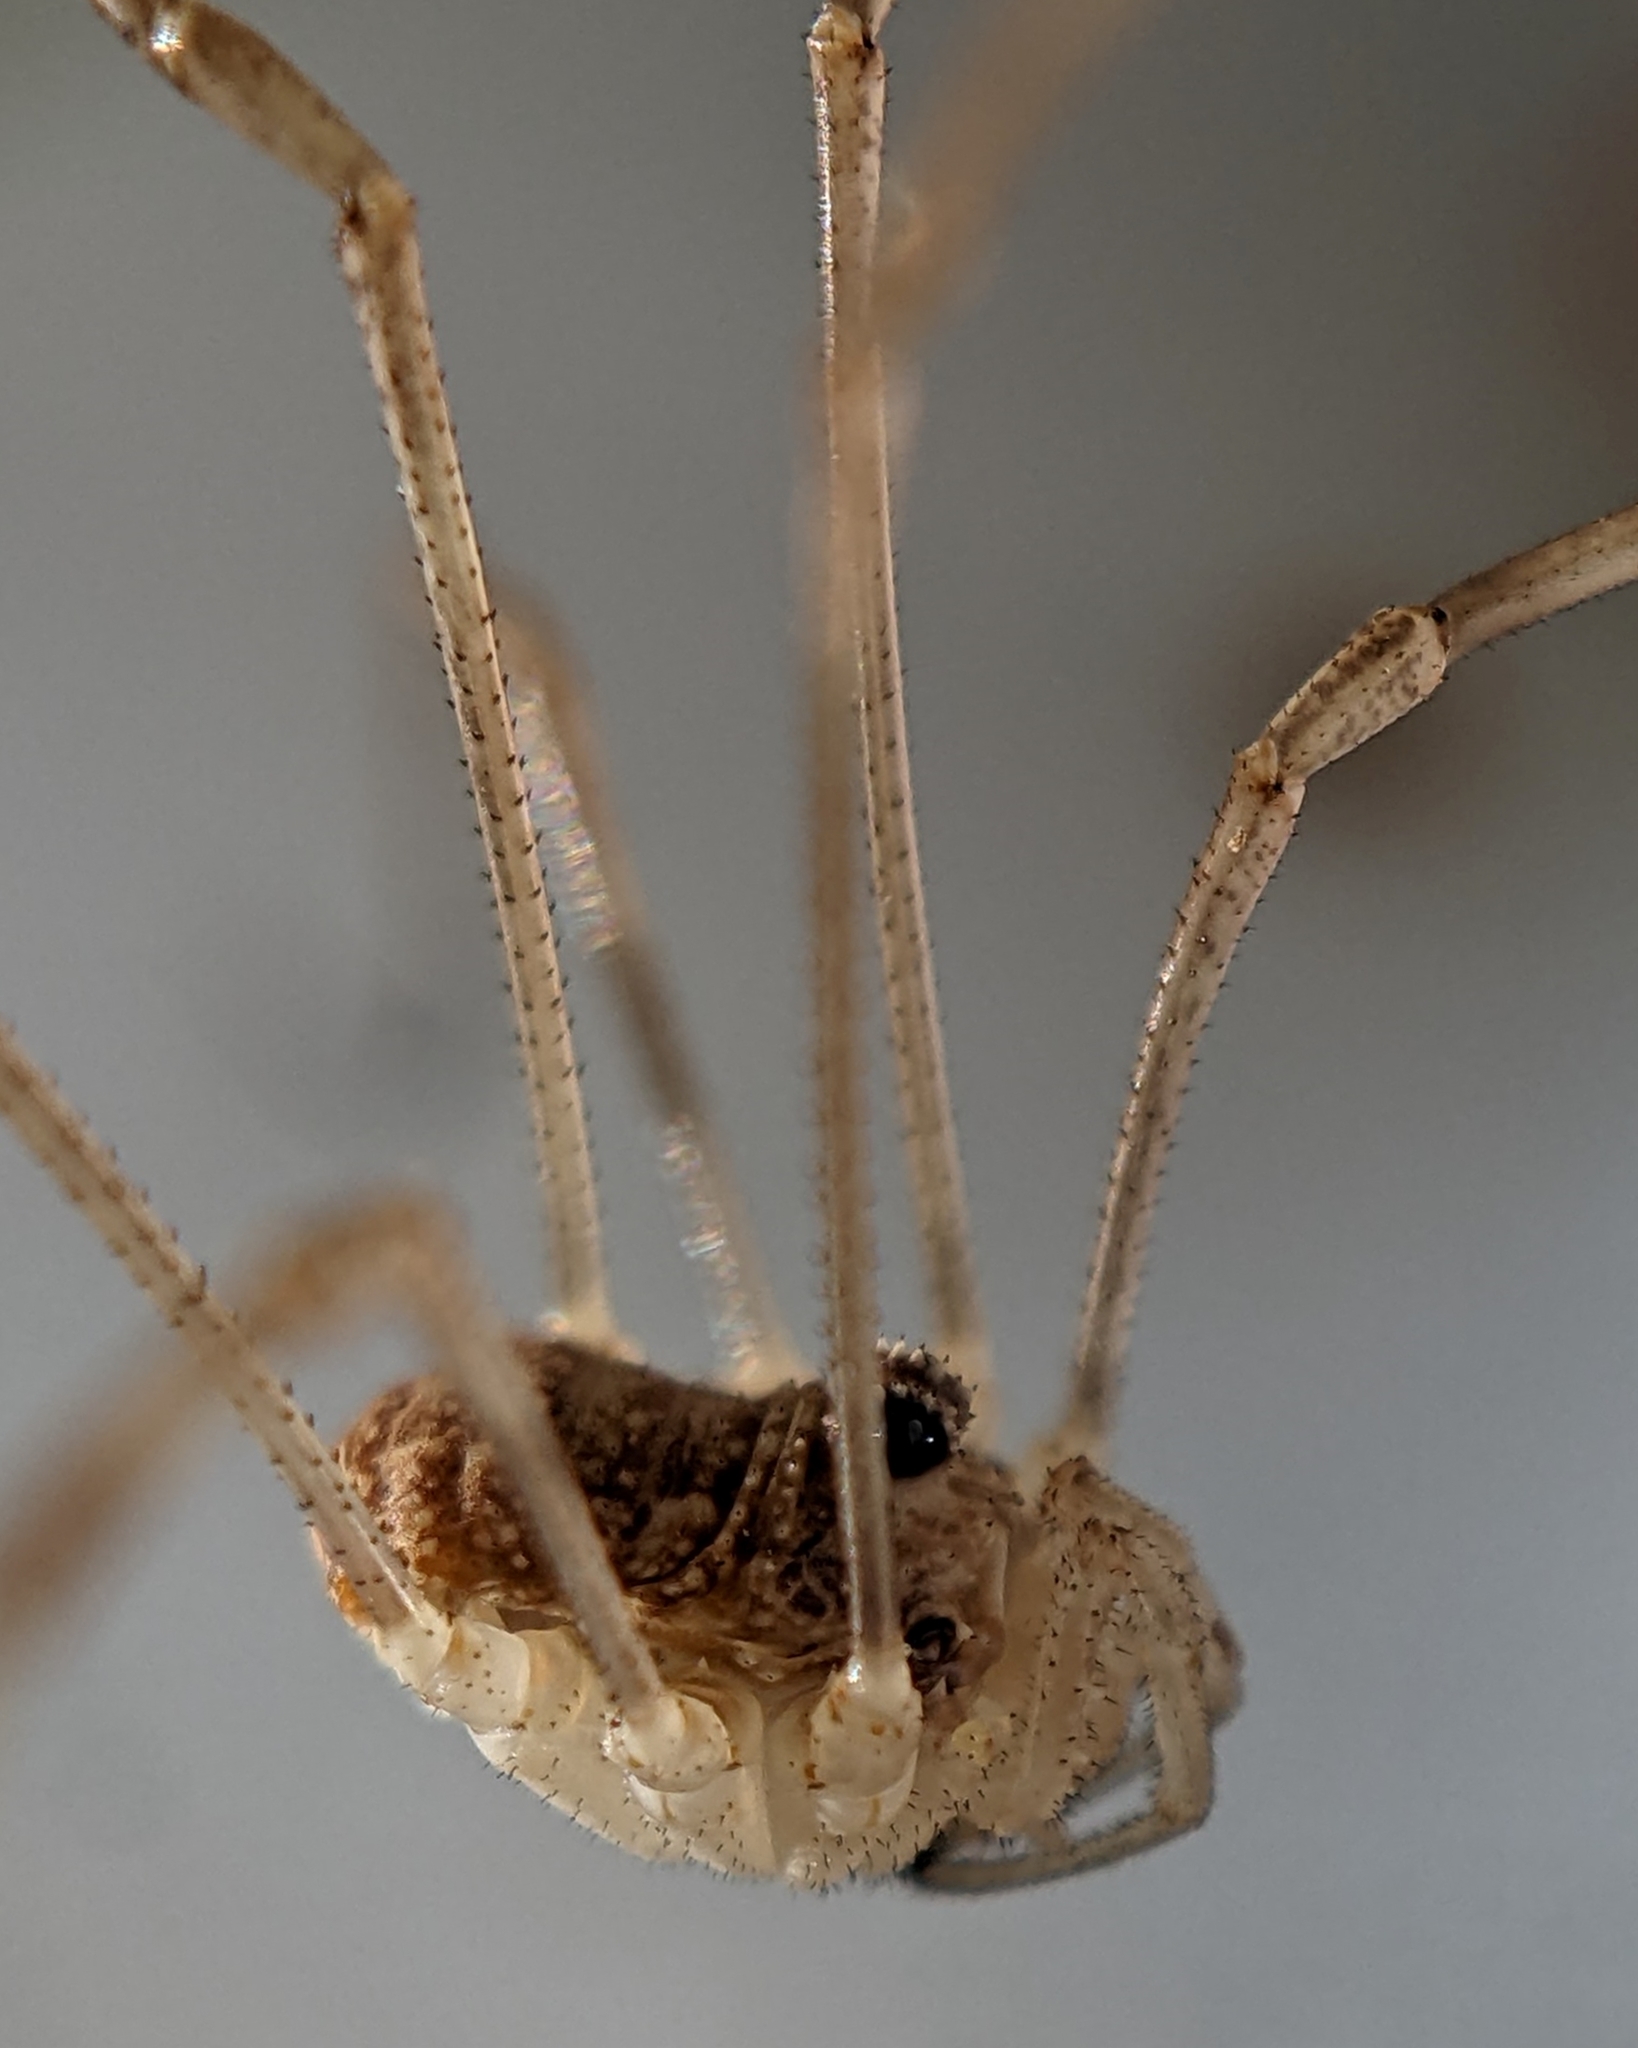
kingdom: Animalia
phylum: Arthropoda
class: Arachnida
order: Opiliones
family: Phalangiidae
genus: Rilaena
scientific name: Rilaena triangularis
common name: Spring harvestman
